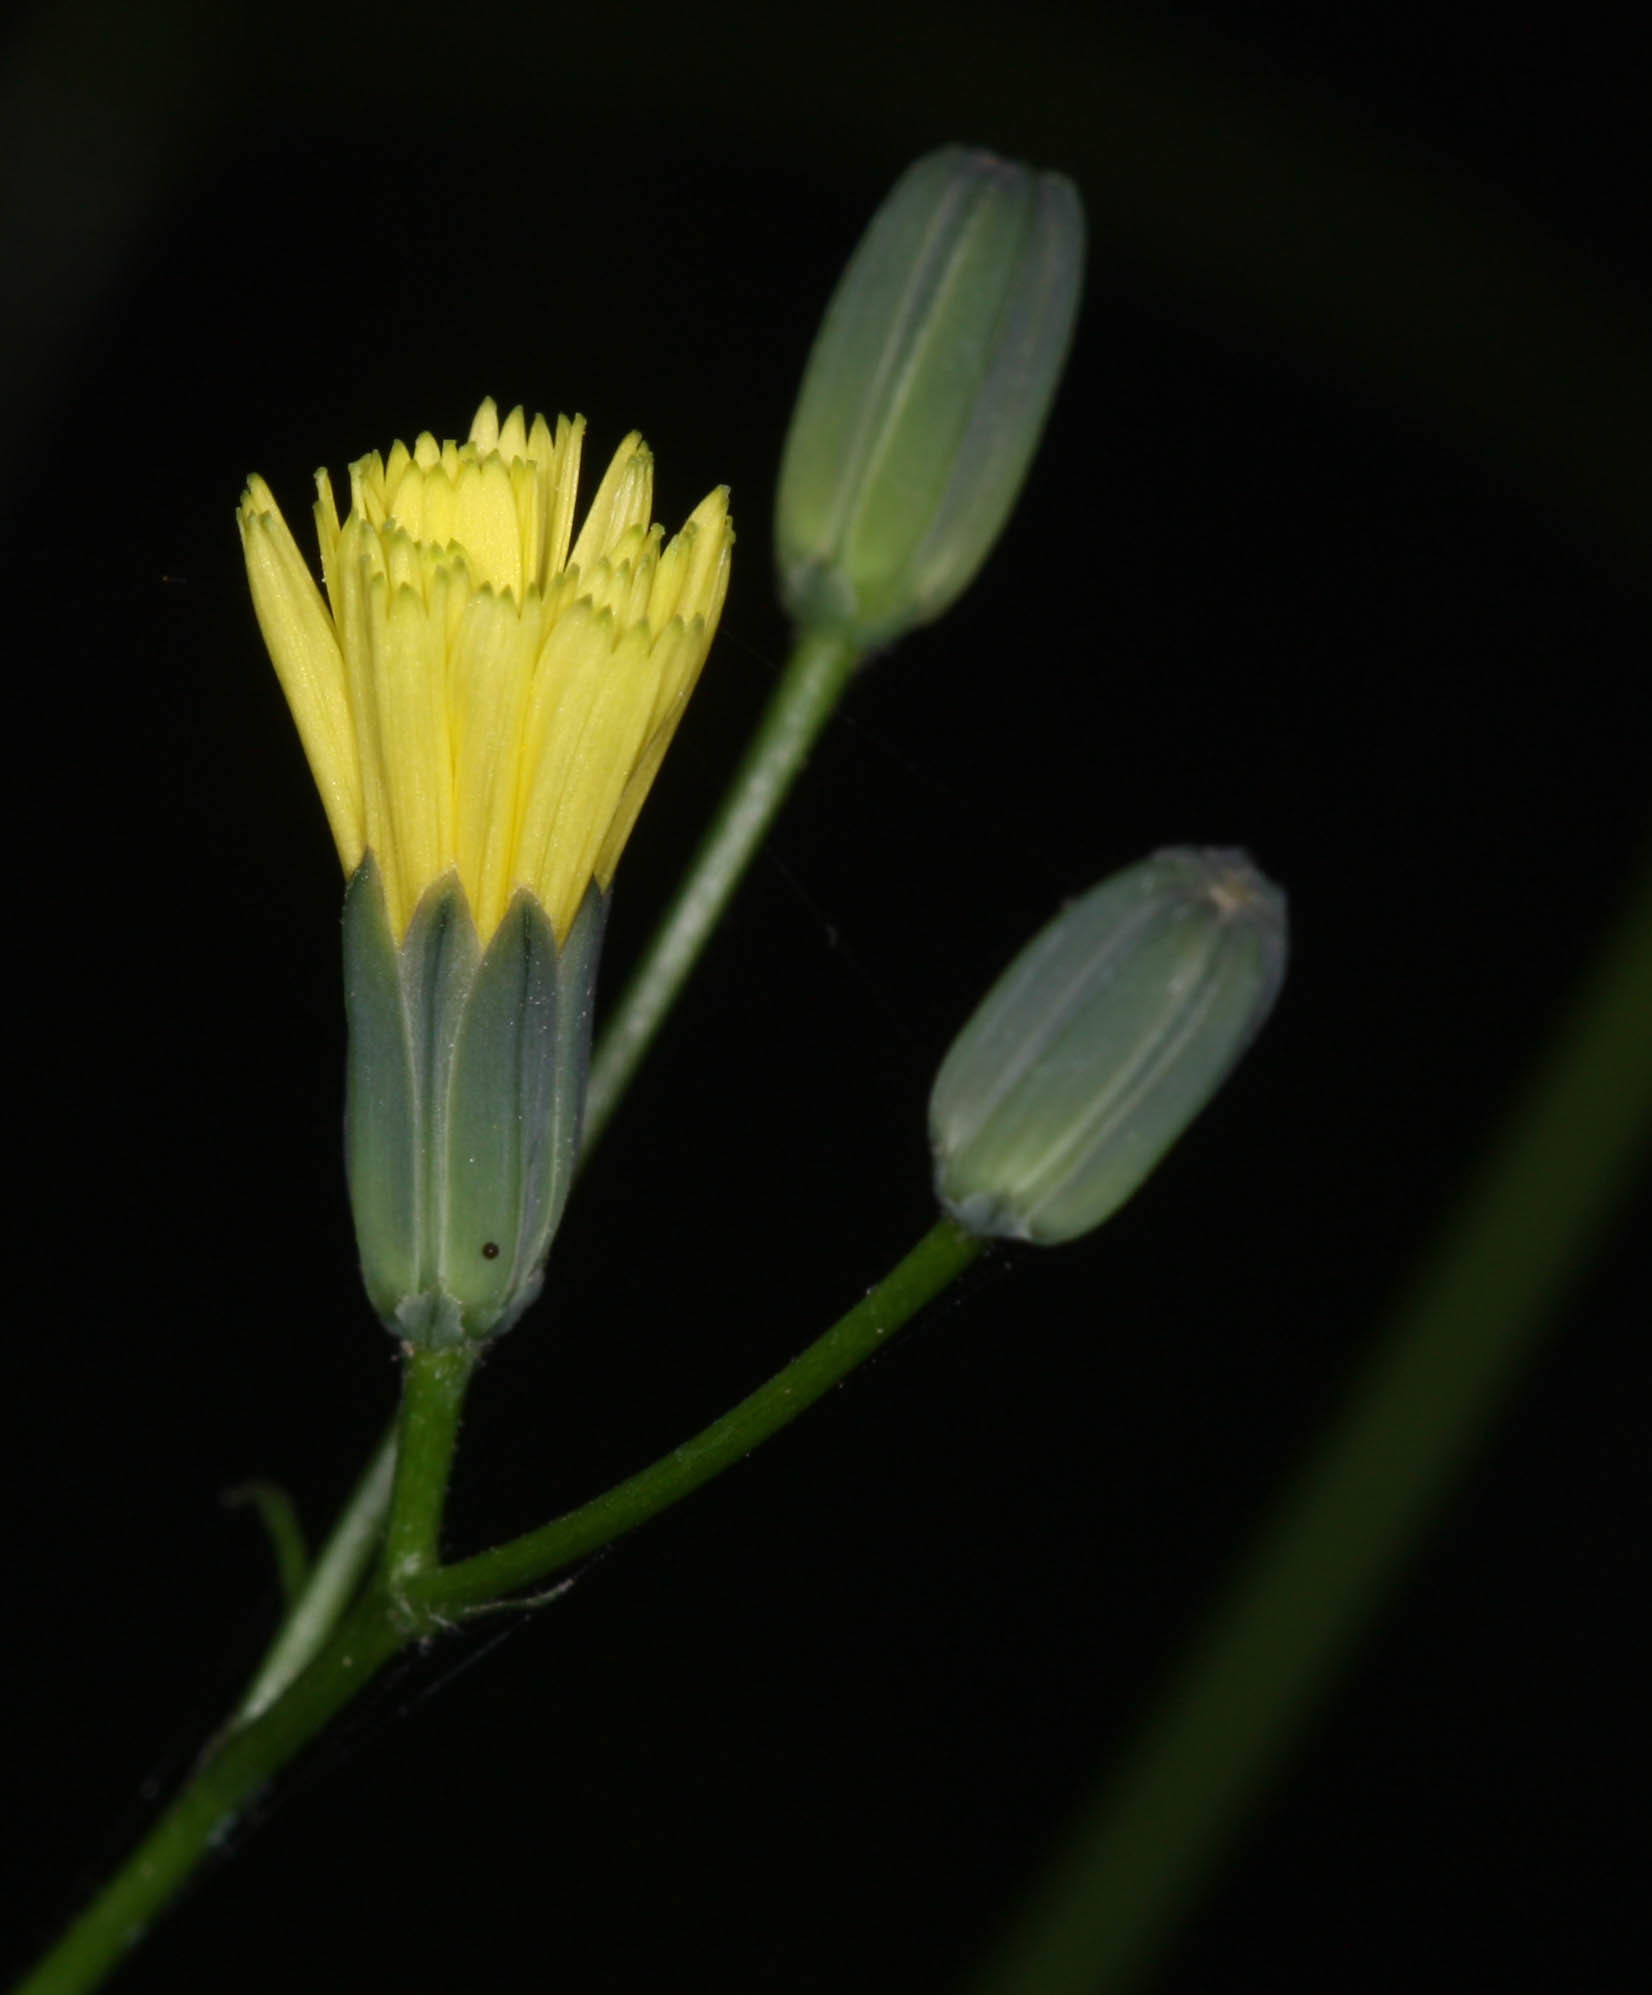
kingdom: Plantae
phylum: Tracheophyta
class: Magnoliopsida
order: Asterales
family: Asteraceae
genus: Lapsana
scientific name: Lapsana communis
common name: Nipplewort
